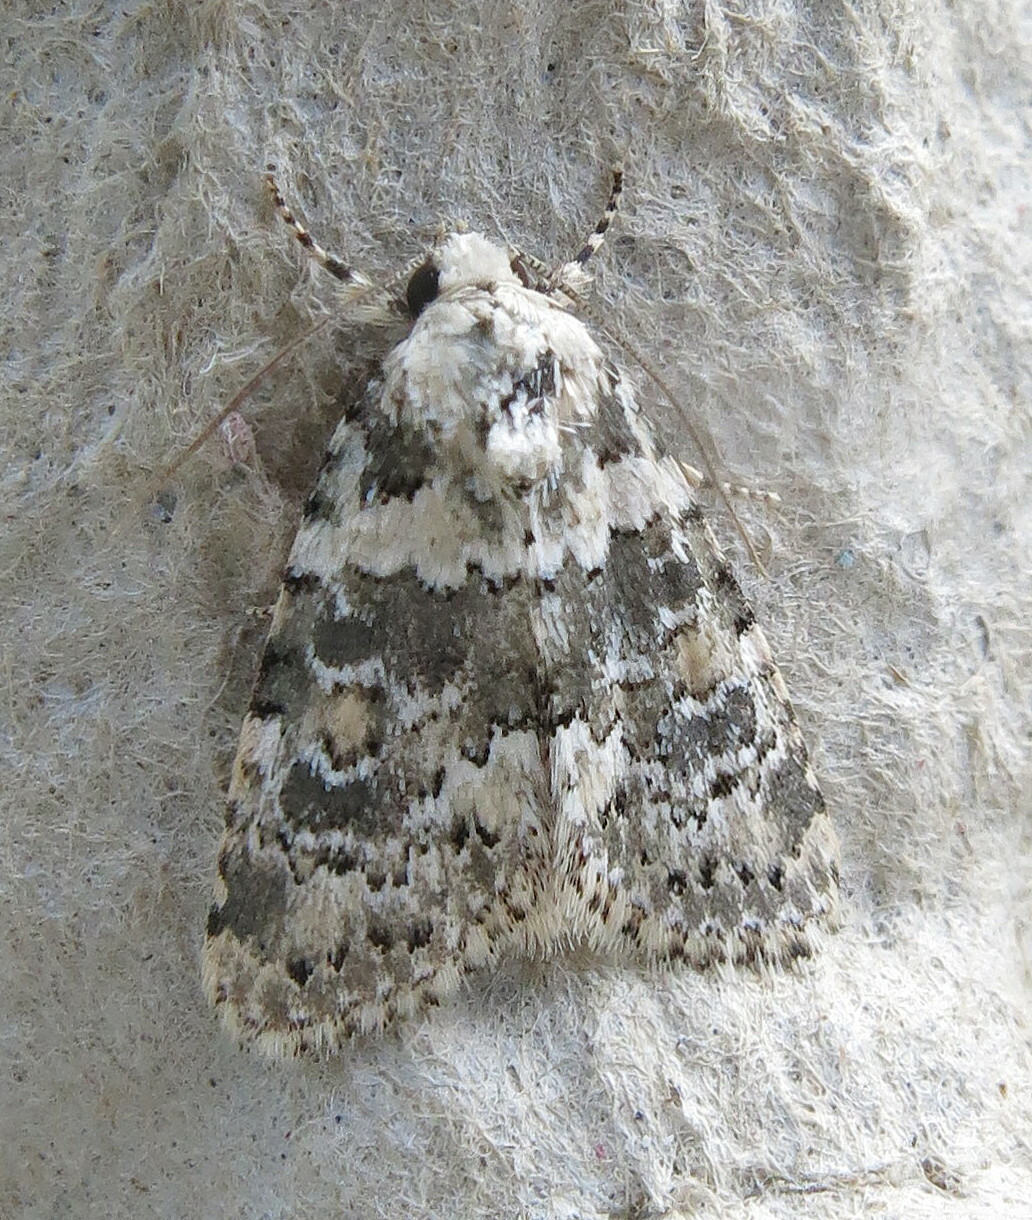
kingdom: Animalia
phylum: Arthropoda
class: Insecta
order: Lepidoptera
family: Noctuidae
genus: Bryophila
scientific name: Bryophila domestica
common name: Marbled beauty
